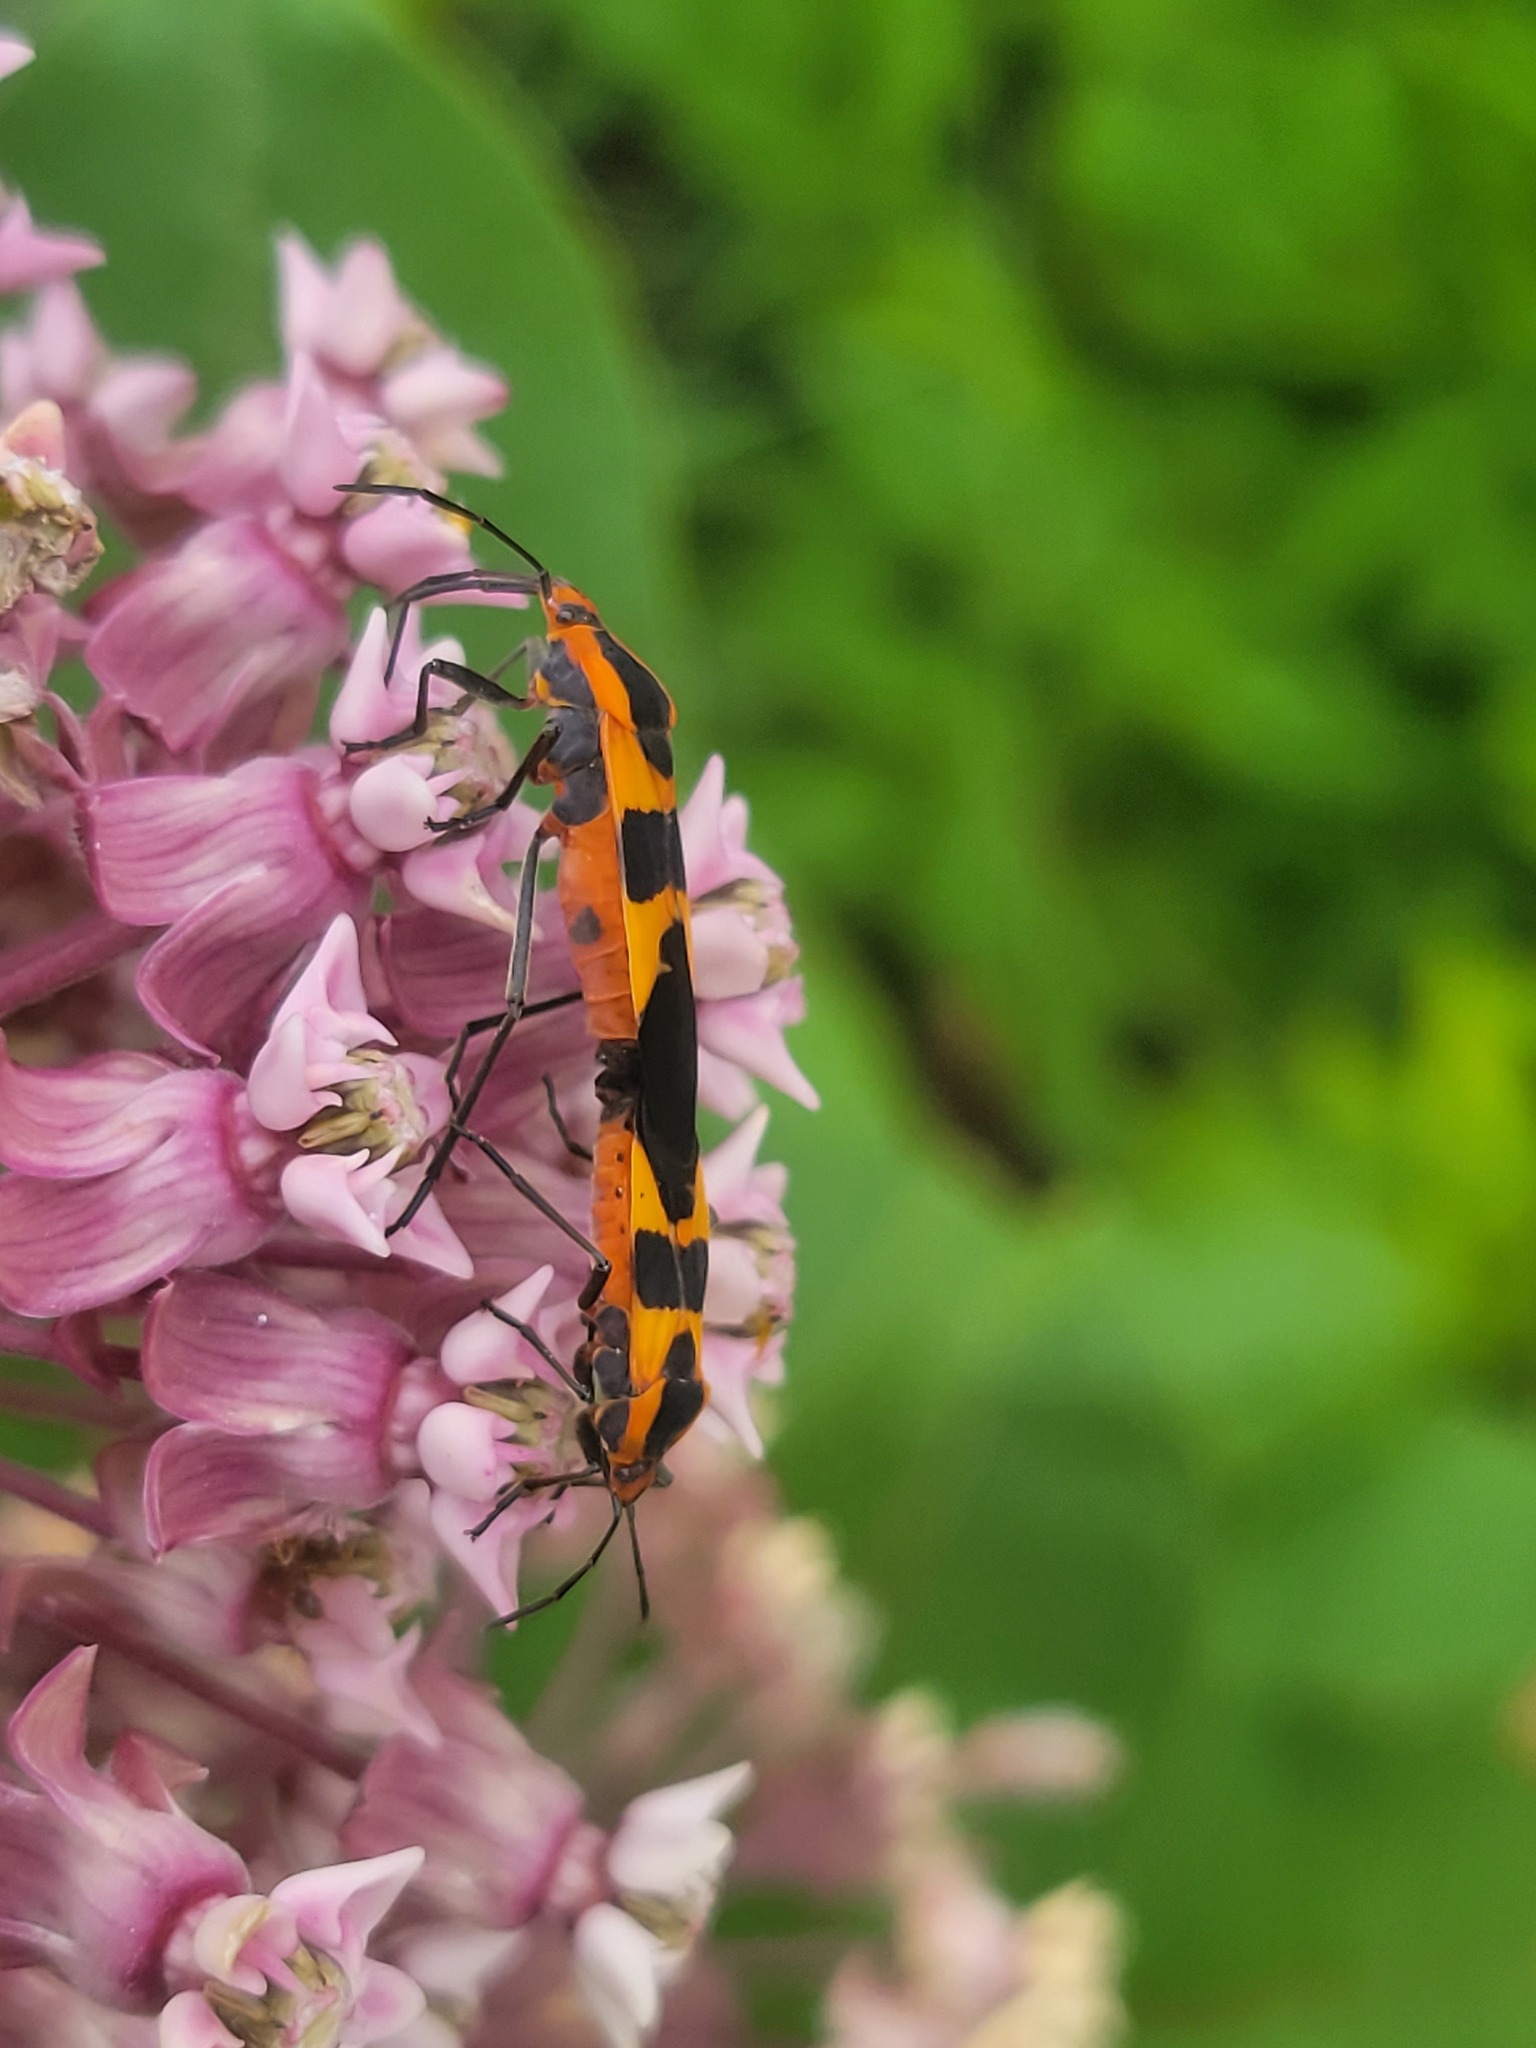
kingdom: Animalia
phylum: Arthropoda
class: Insecta
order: Hemiptera
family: Lygaeidae
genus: Oncopeltus
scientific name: Oncopeltus fasciatus
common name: Large milkweed bug
